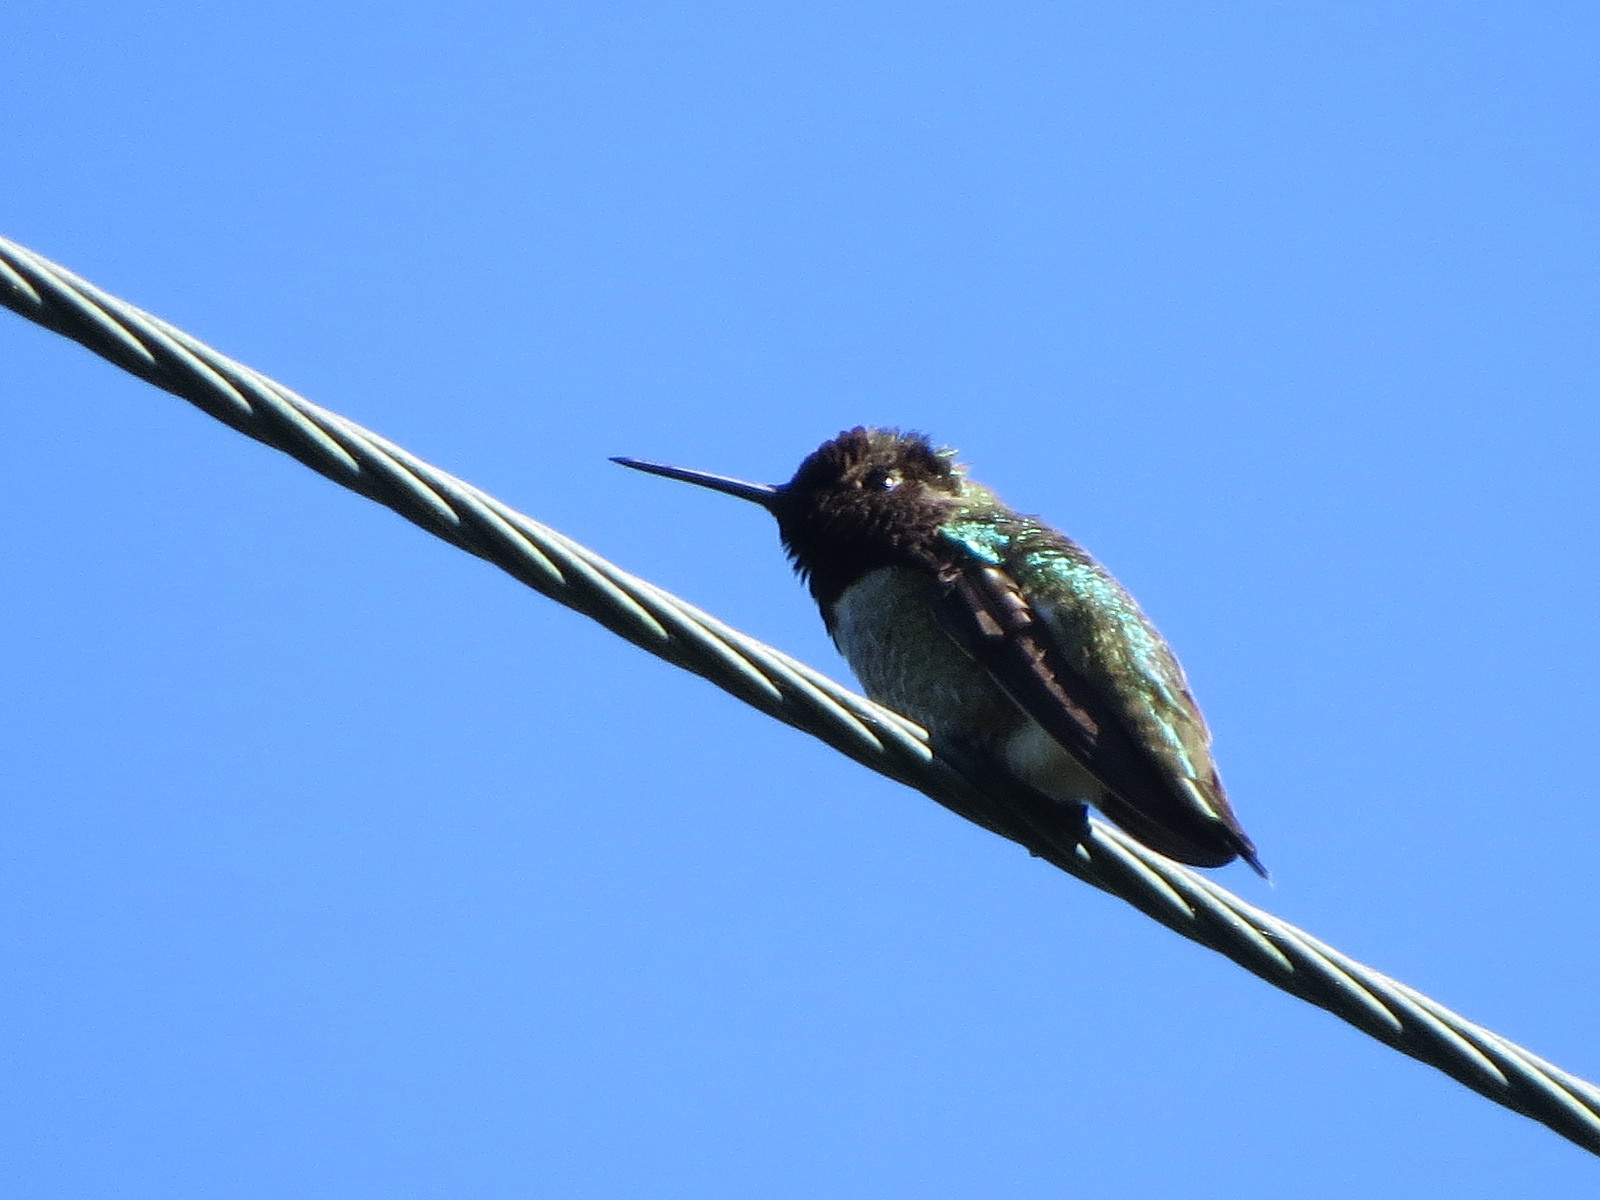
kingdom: Animalia
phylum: Chordata
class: Aves
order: Apodiformes
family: Trochilidae
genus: Calypte
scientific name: Calypte anna
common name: Anna's hummingbird
